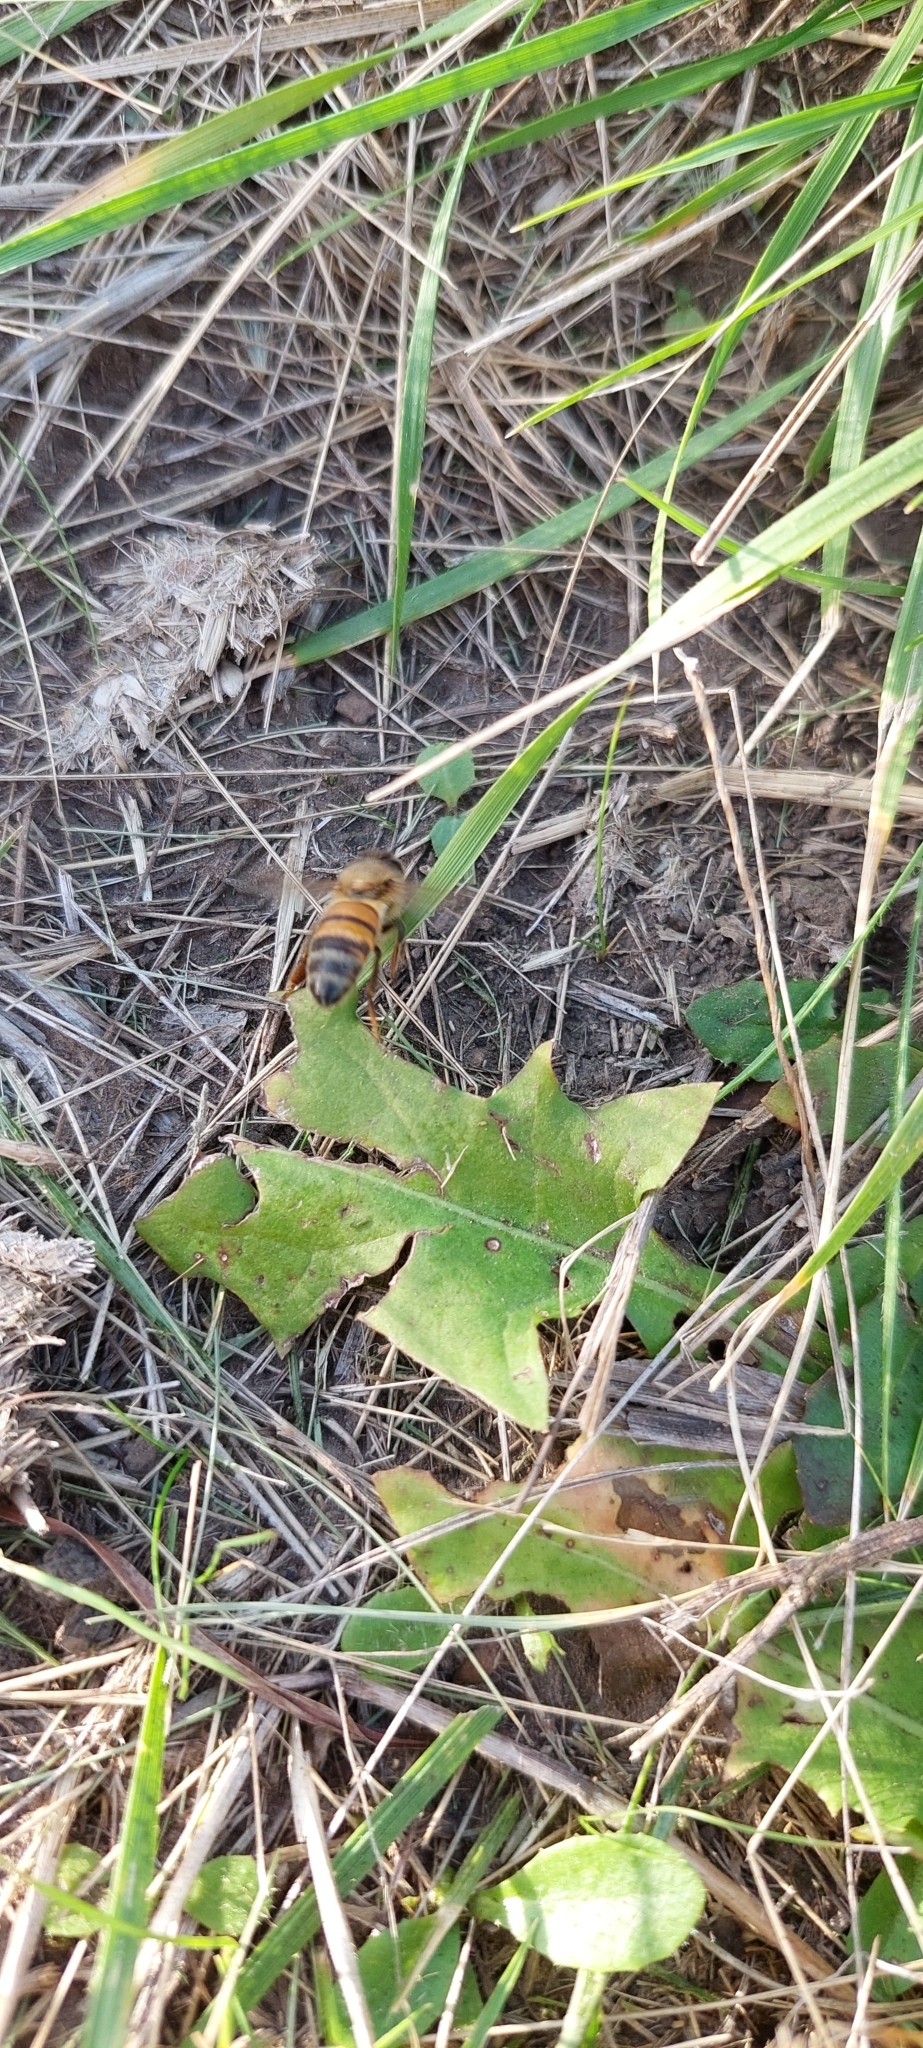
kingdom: Animalia
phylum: Arthropoda
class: Insecta
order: Hymenoptera
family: Apidae
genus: Apis
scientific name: Apis mellifera
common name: Honey bee
